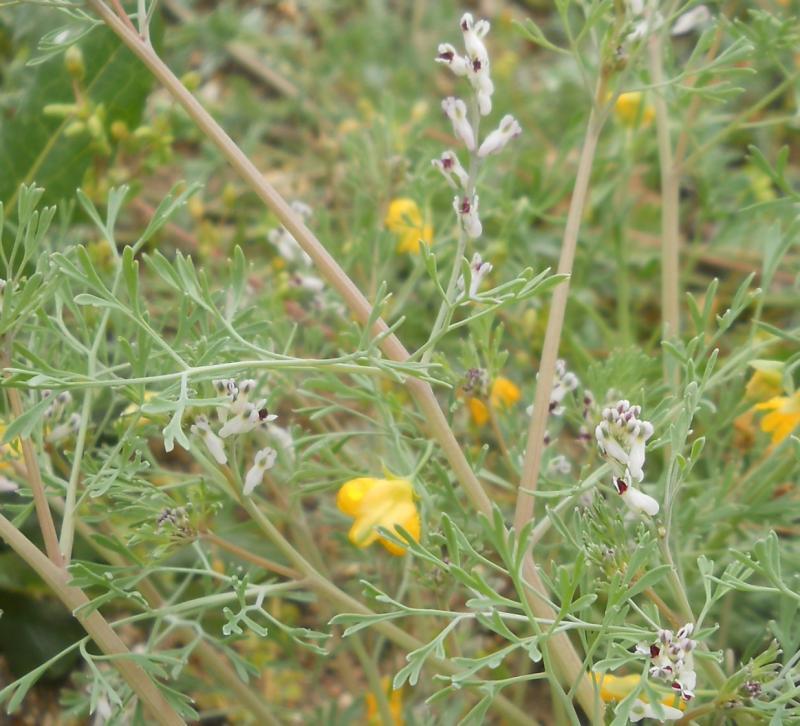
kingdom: Plantae
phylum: Tracheophyta
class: Magnoliopsida
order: Ranunculales
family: Papaveraceae
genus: Fumaria
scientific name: Fumaria parviflora
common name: Fine-leaved fumitory
